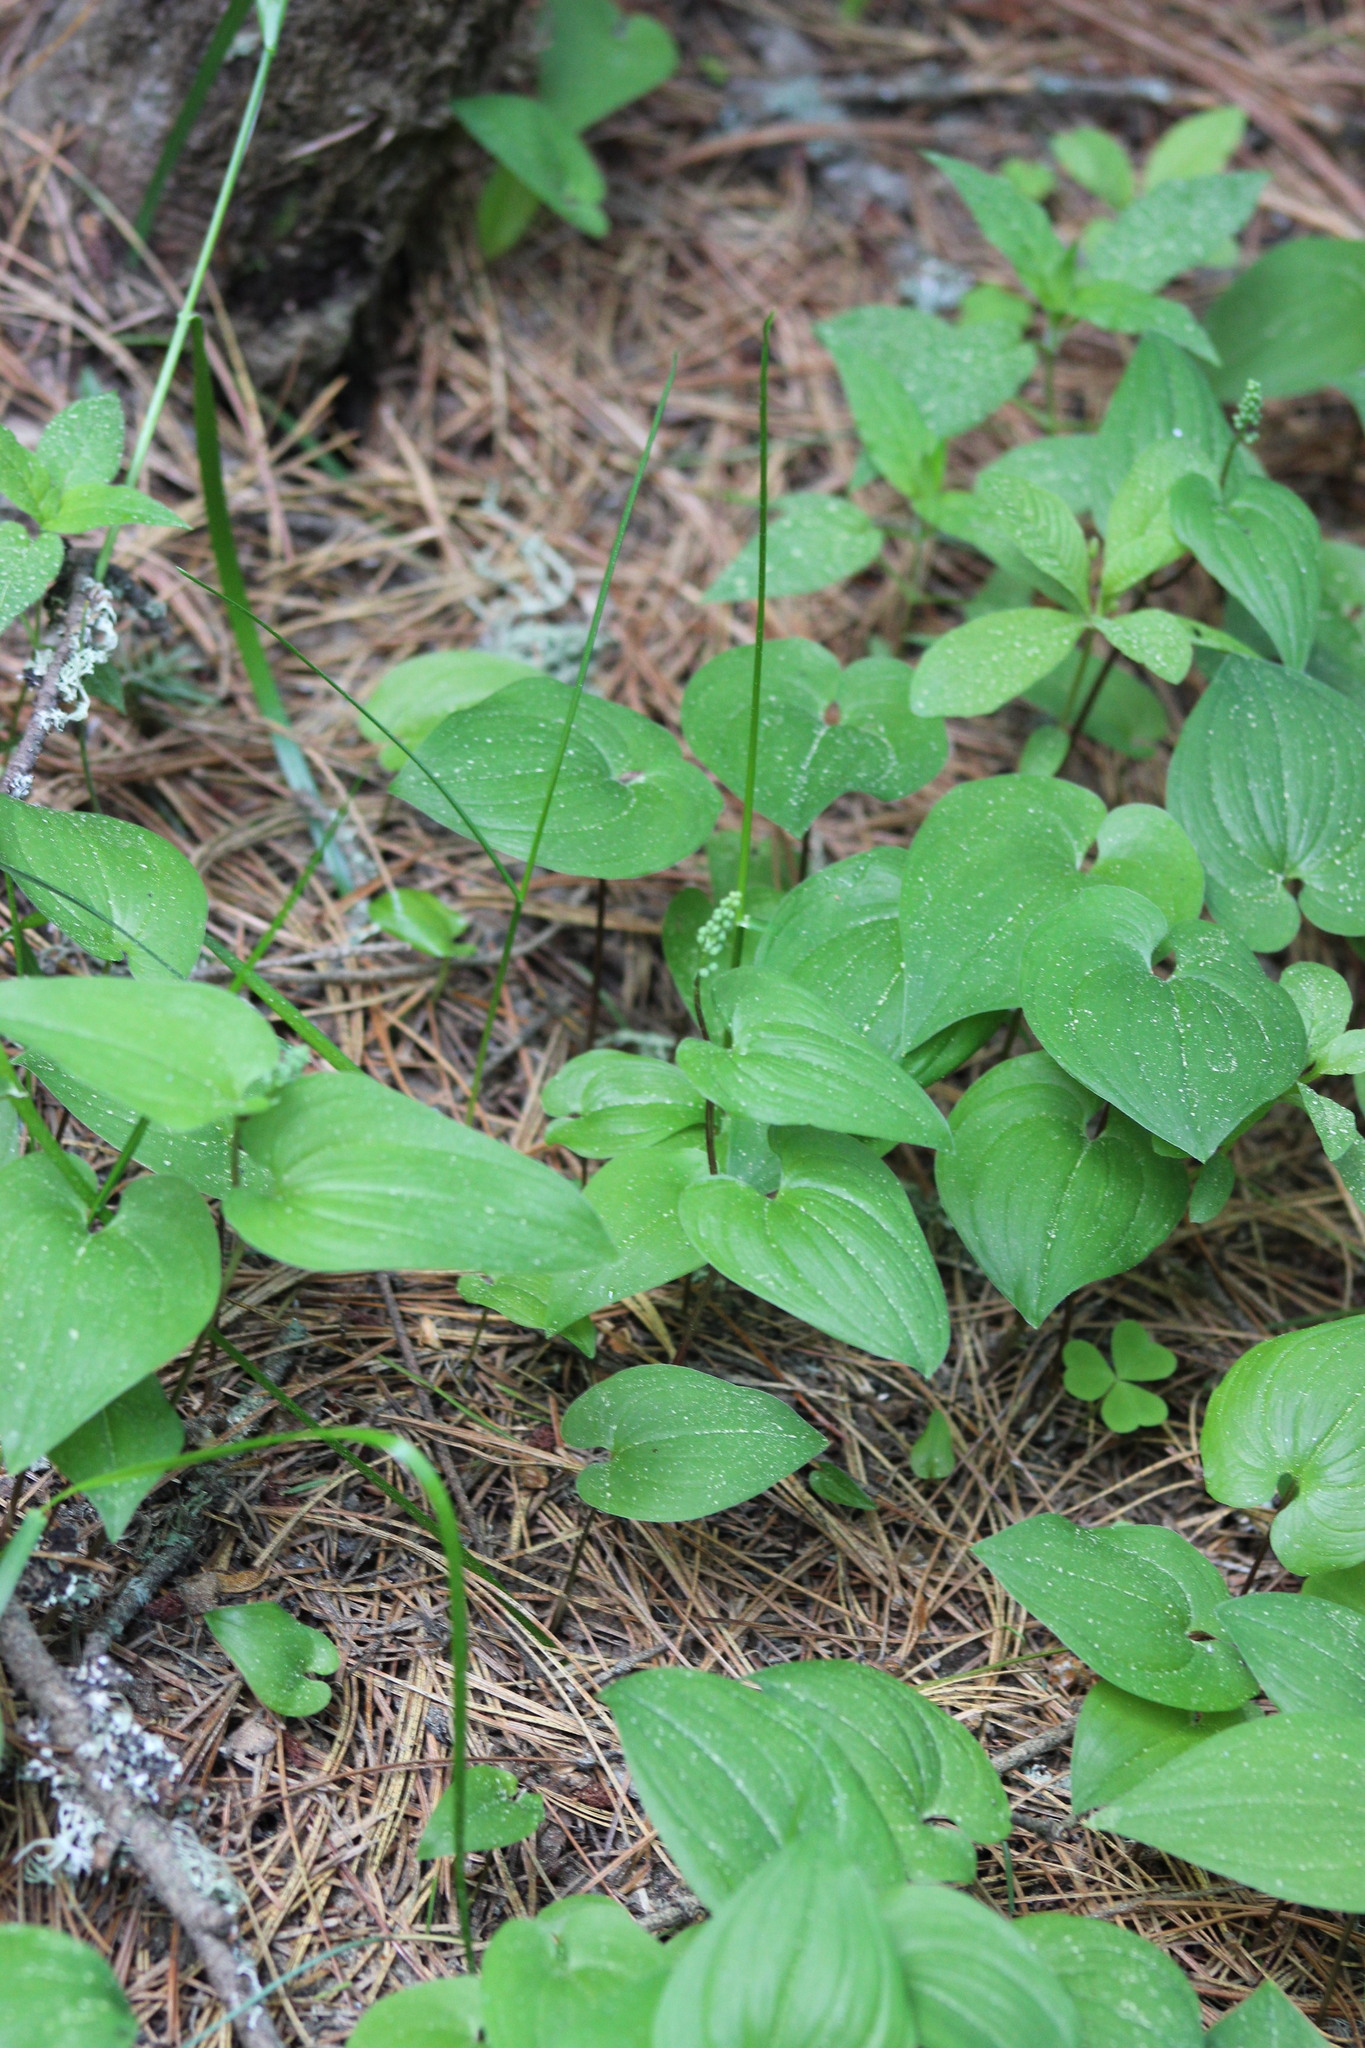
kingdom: Plantae
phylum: Tracheophyta
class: Liliopsida
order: Asparagales
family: Asparagaceae
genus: Maianthemum
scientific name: Maianthemum bifolium
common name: May lily
